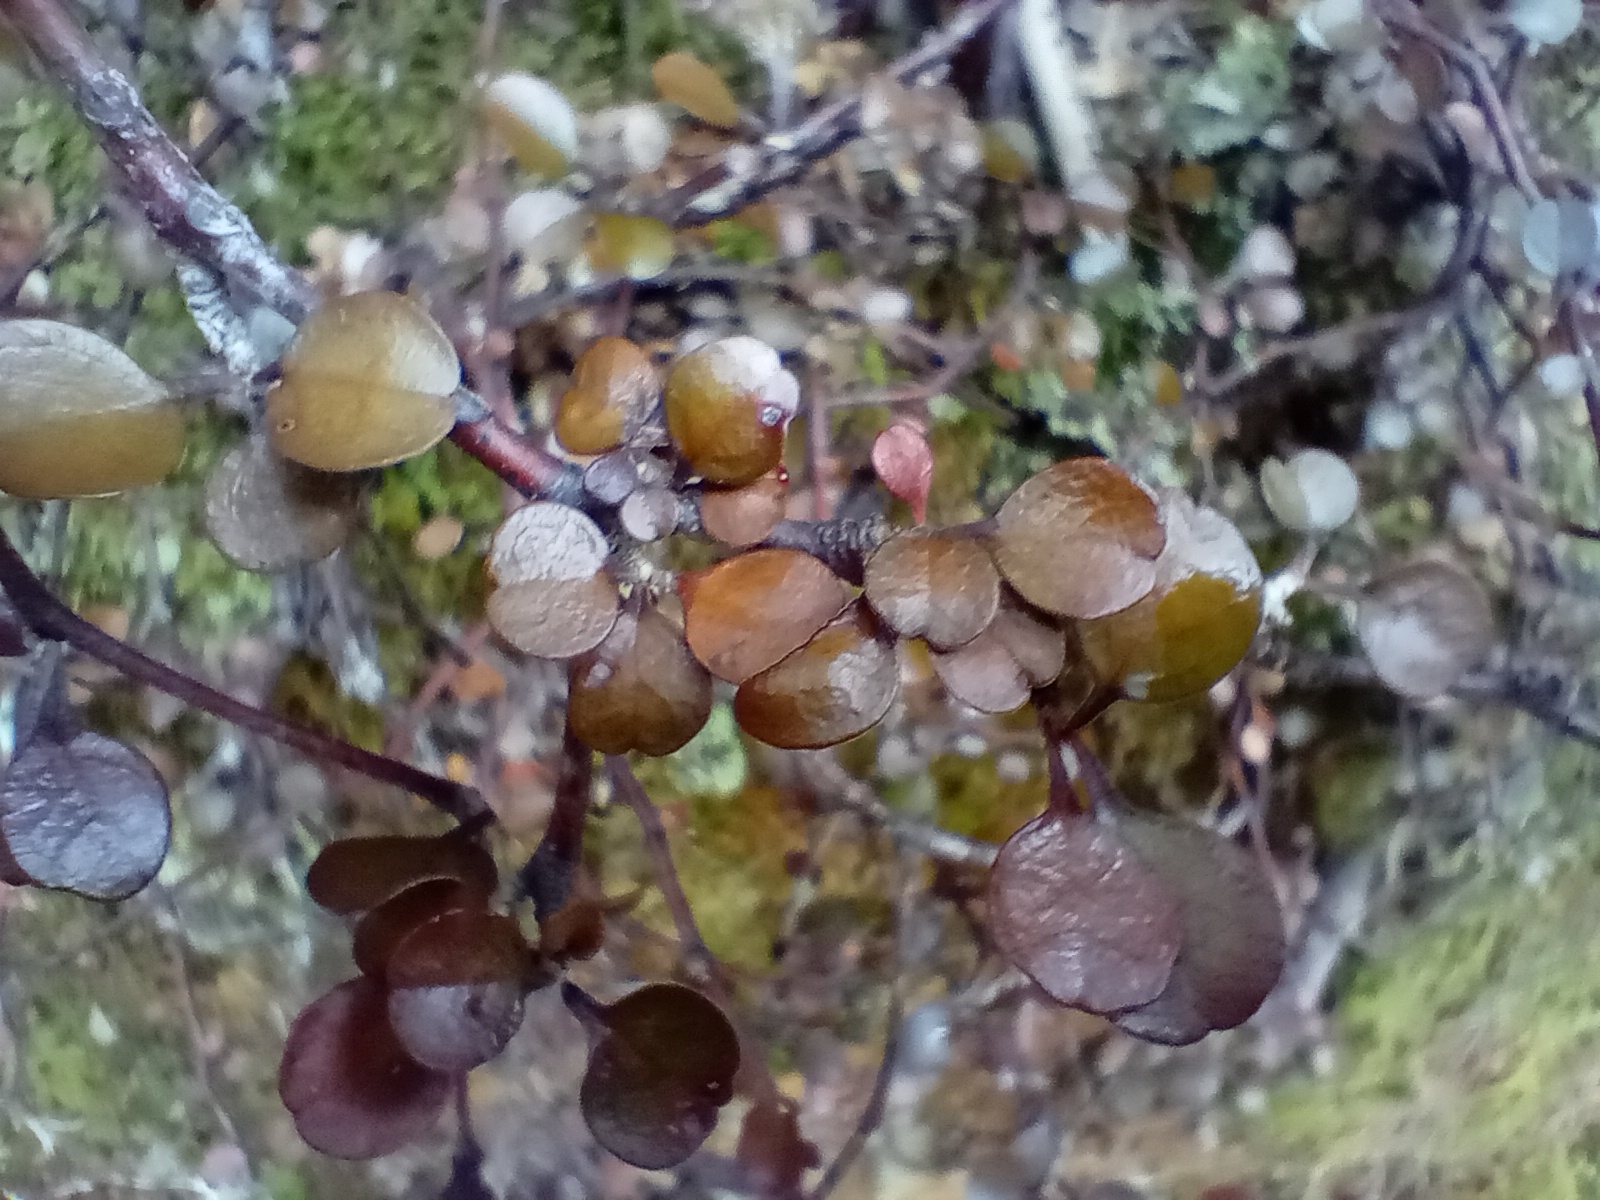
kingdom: Plantae
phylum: Tracheophyta
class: Magnoliopsida
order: Asterales
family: Argophyllaceae
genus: Corokia
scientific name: Corokia cotoneaster
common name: Wire nettingbush
